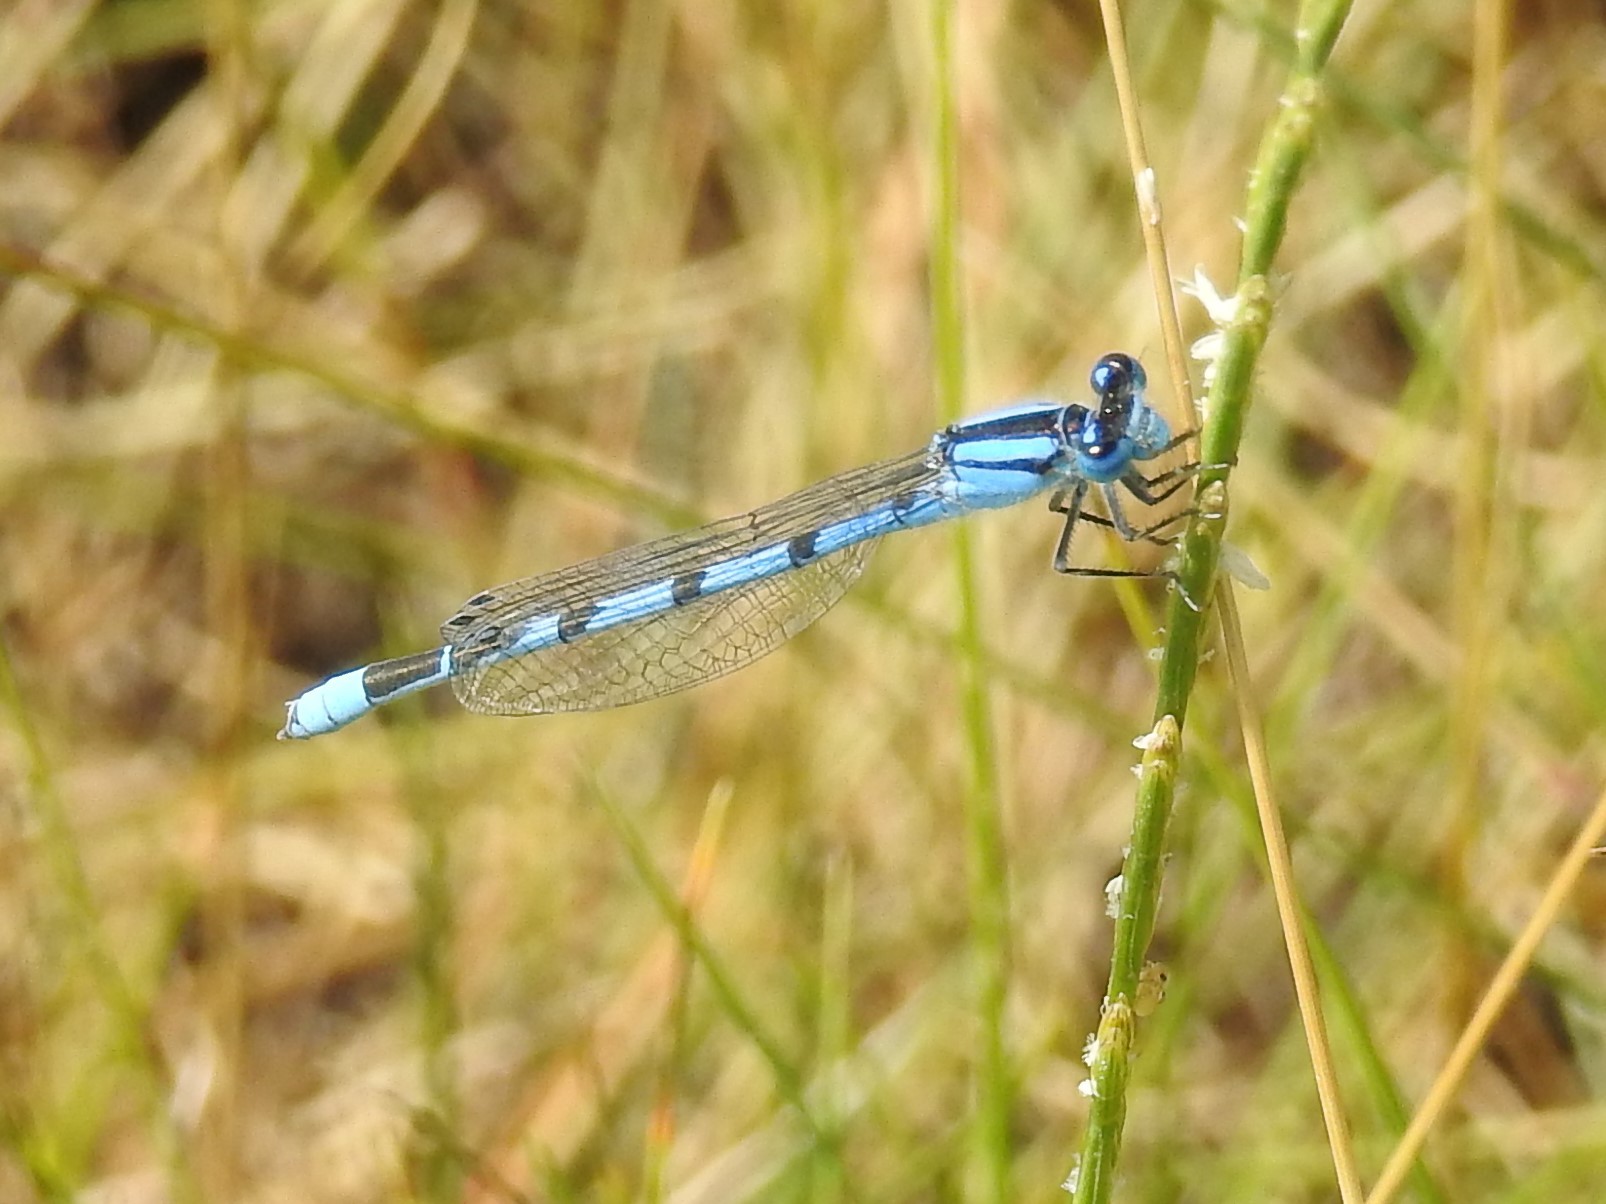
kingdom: Animalia
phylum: Arthropoda
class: Insecta
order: Odonata
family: Coenagrionidae
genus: Enallagma
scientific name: Enallagma civile
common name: Damselfly
